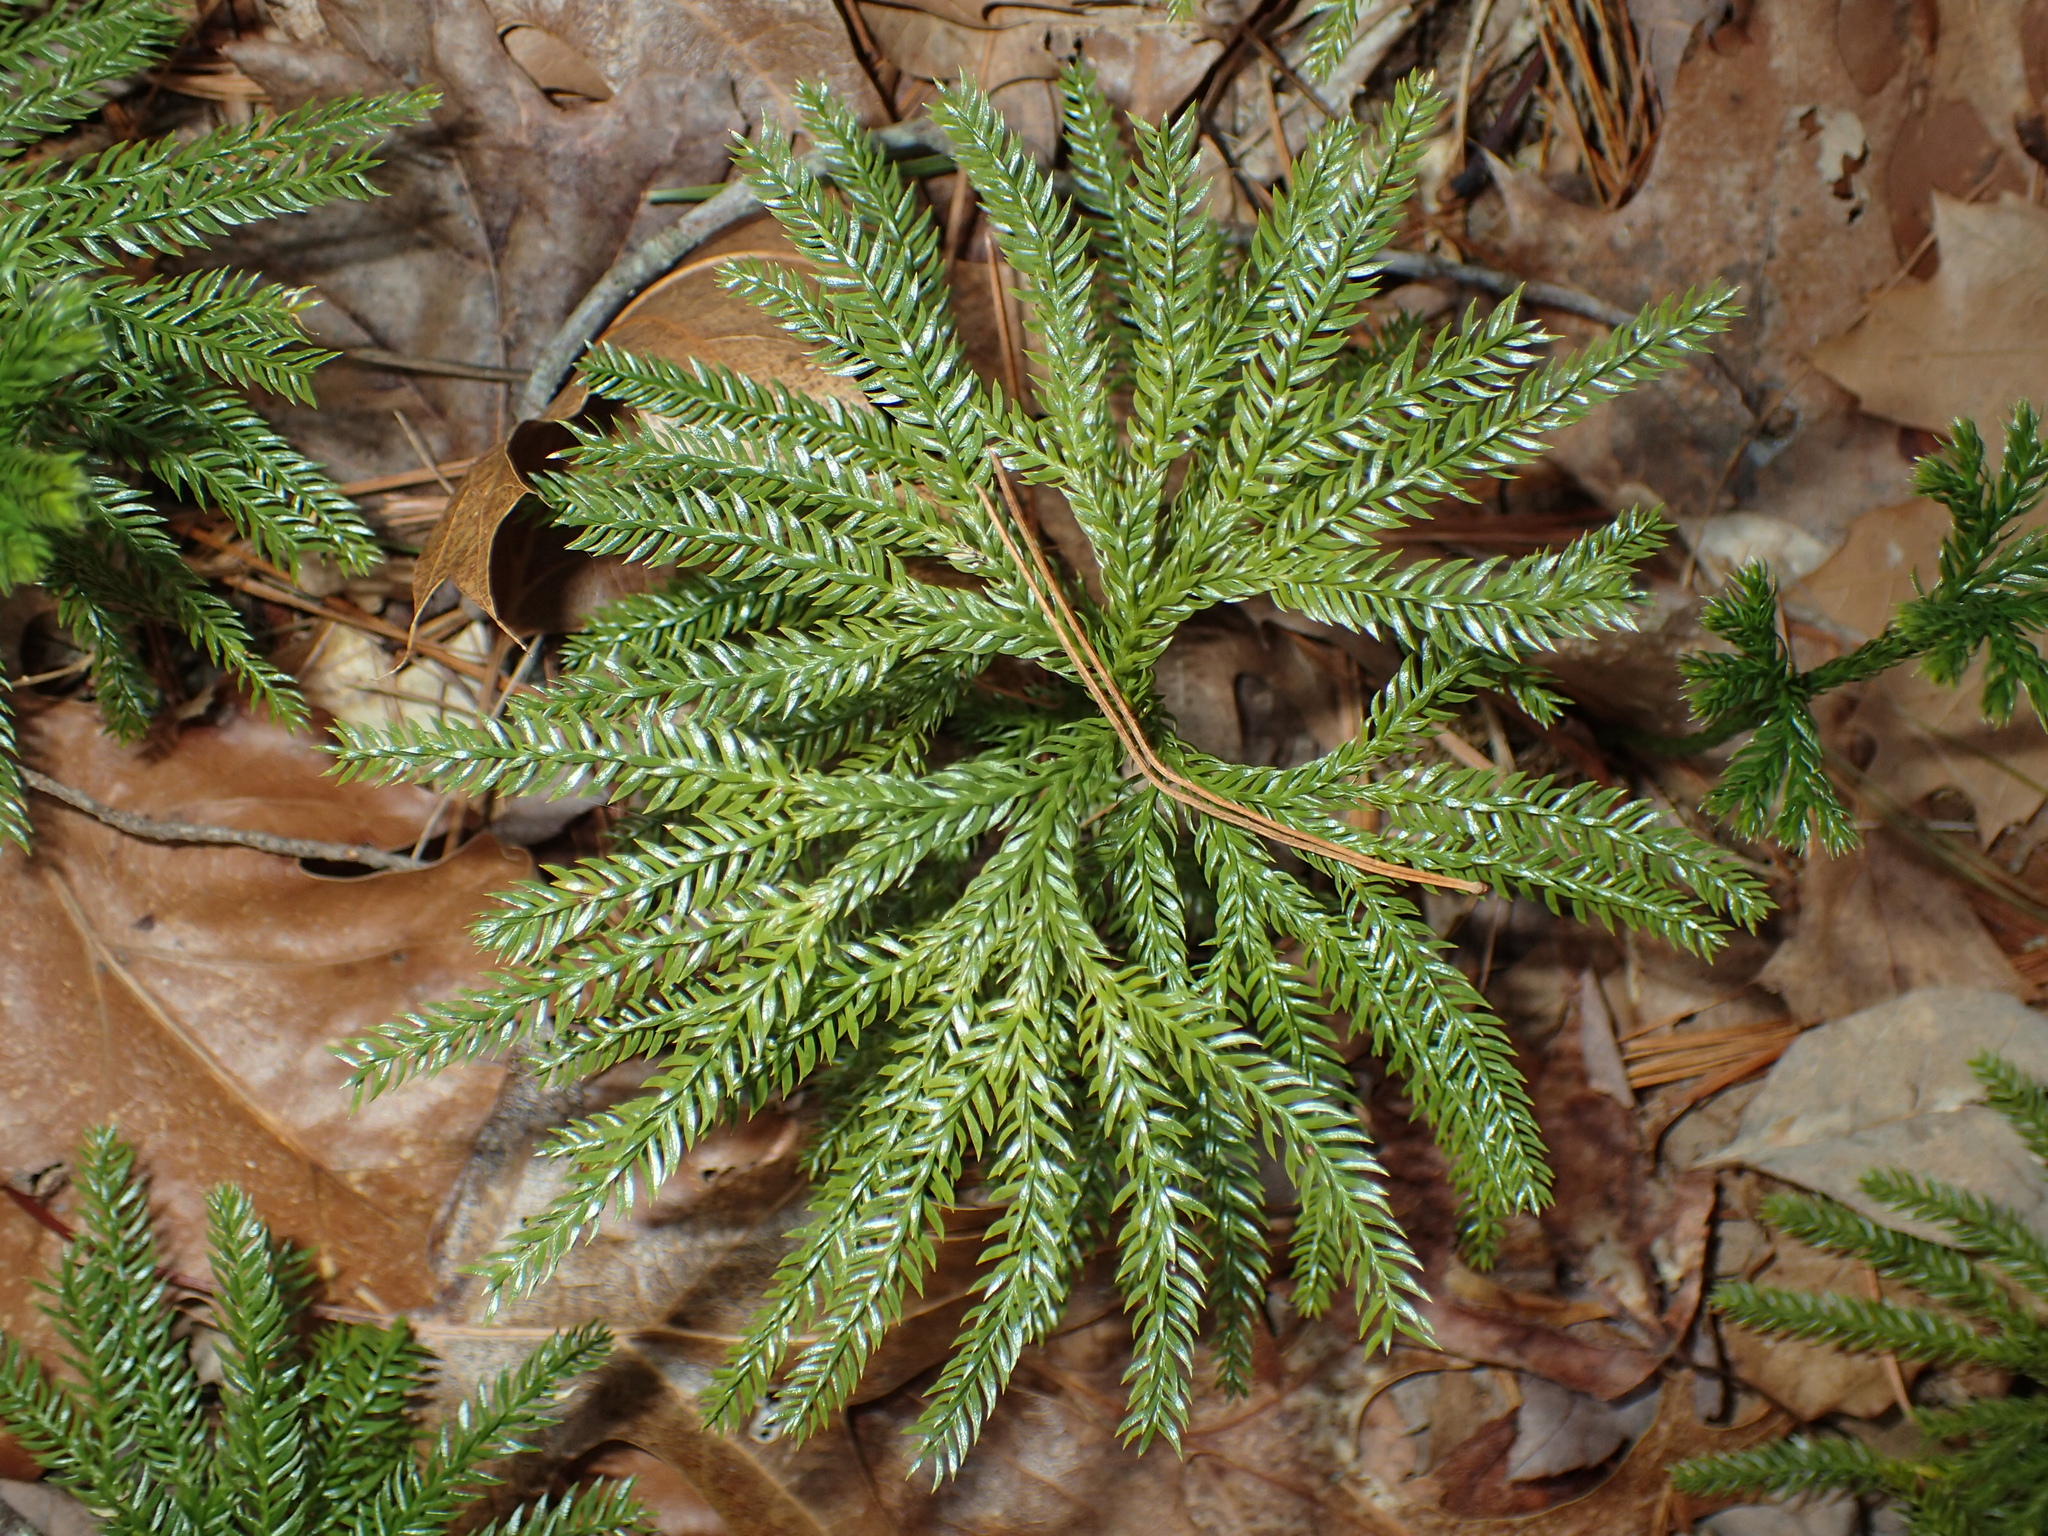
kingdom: Plantae
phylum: Tracheophyta
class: Lycopodiopsida
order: Lycopodiales
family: Lycopodiaceae
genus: Dendrolycopodium
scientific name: Dendrolycopodium obscurum
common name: Common ground-pine
